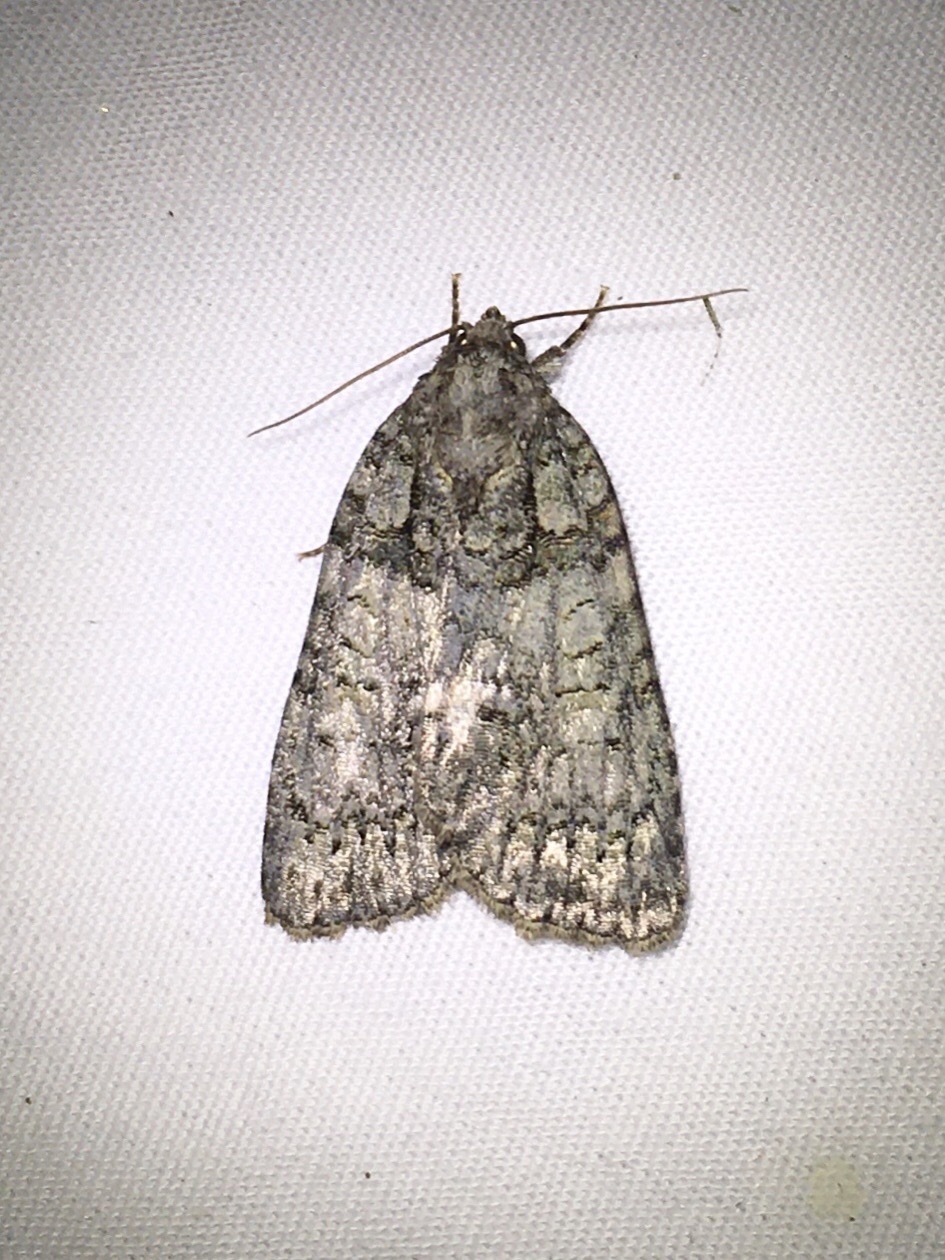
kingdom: Animalia
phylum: Arthropoda
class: Insecta
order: Lepidoptera
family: Noctuidae
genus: Acronicta
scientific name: Acronicta increta
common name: Eclipsed oak dagger
